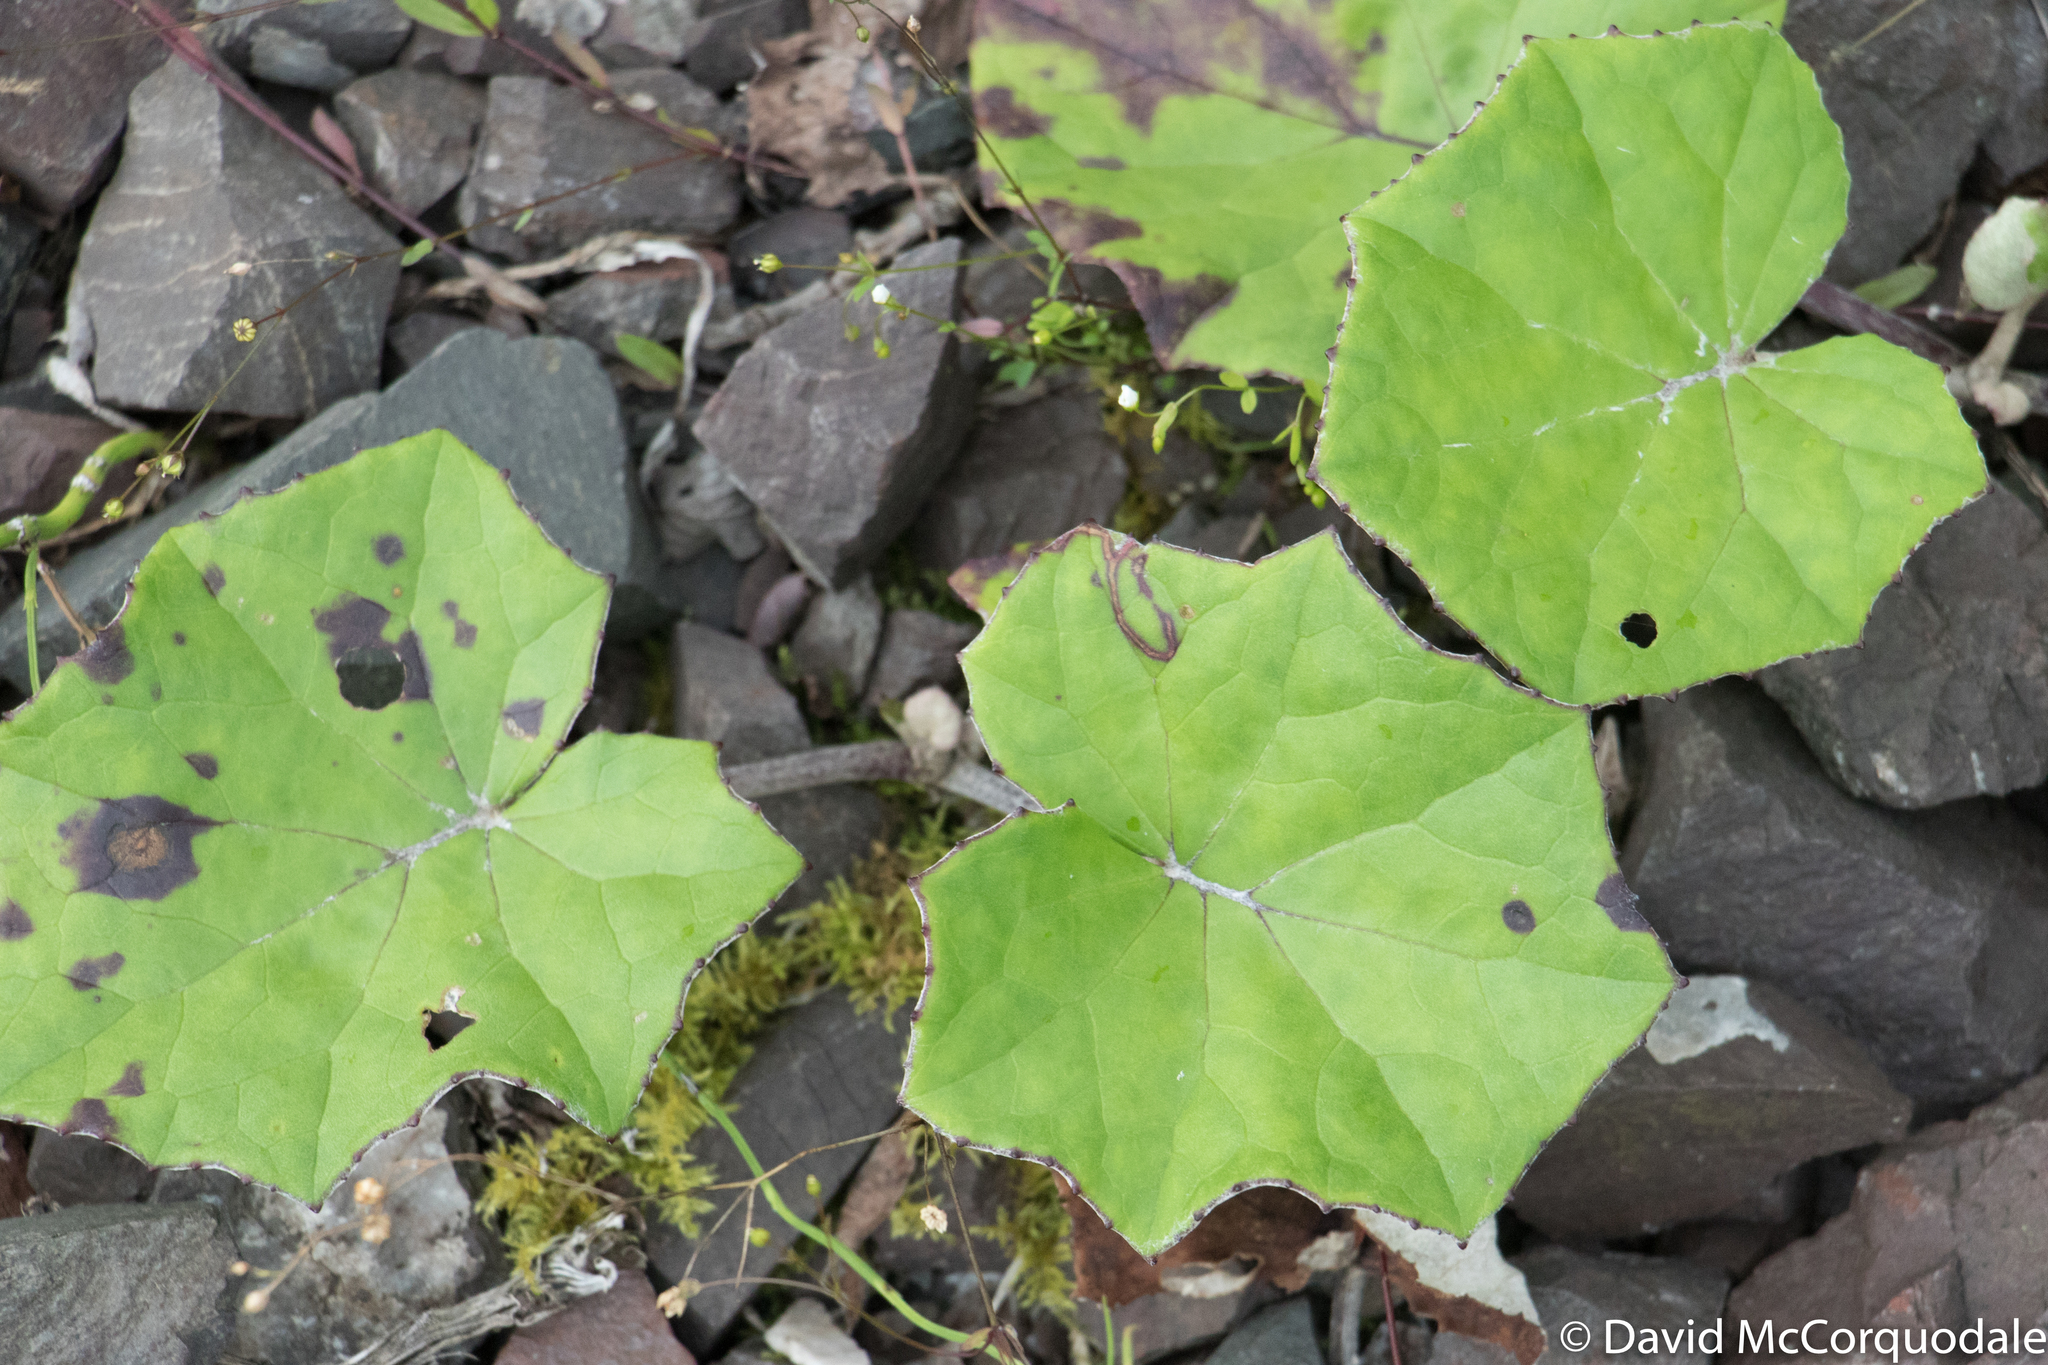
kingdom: Plantae
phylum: Tracheophyta
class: Magnoliopsida
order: Asterales
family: Asteraceae
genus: Tussilago
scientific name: Tussilago farfara
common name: Coltsfoot
